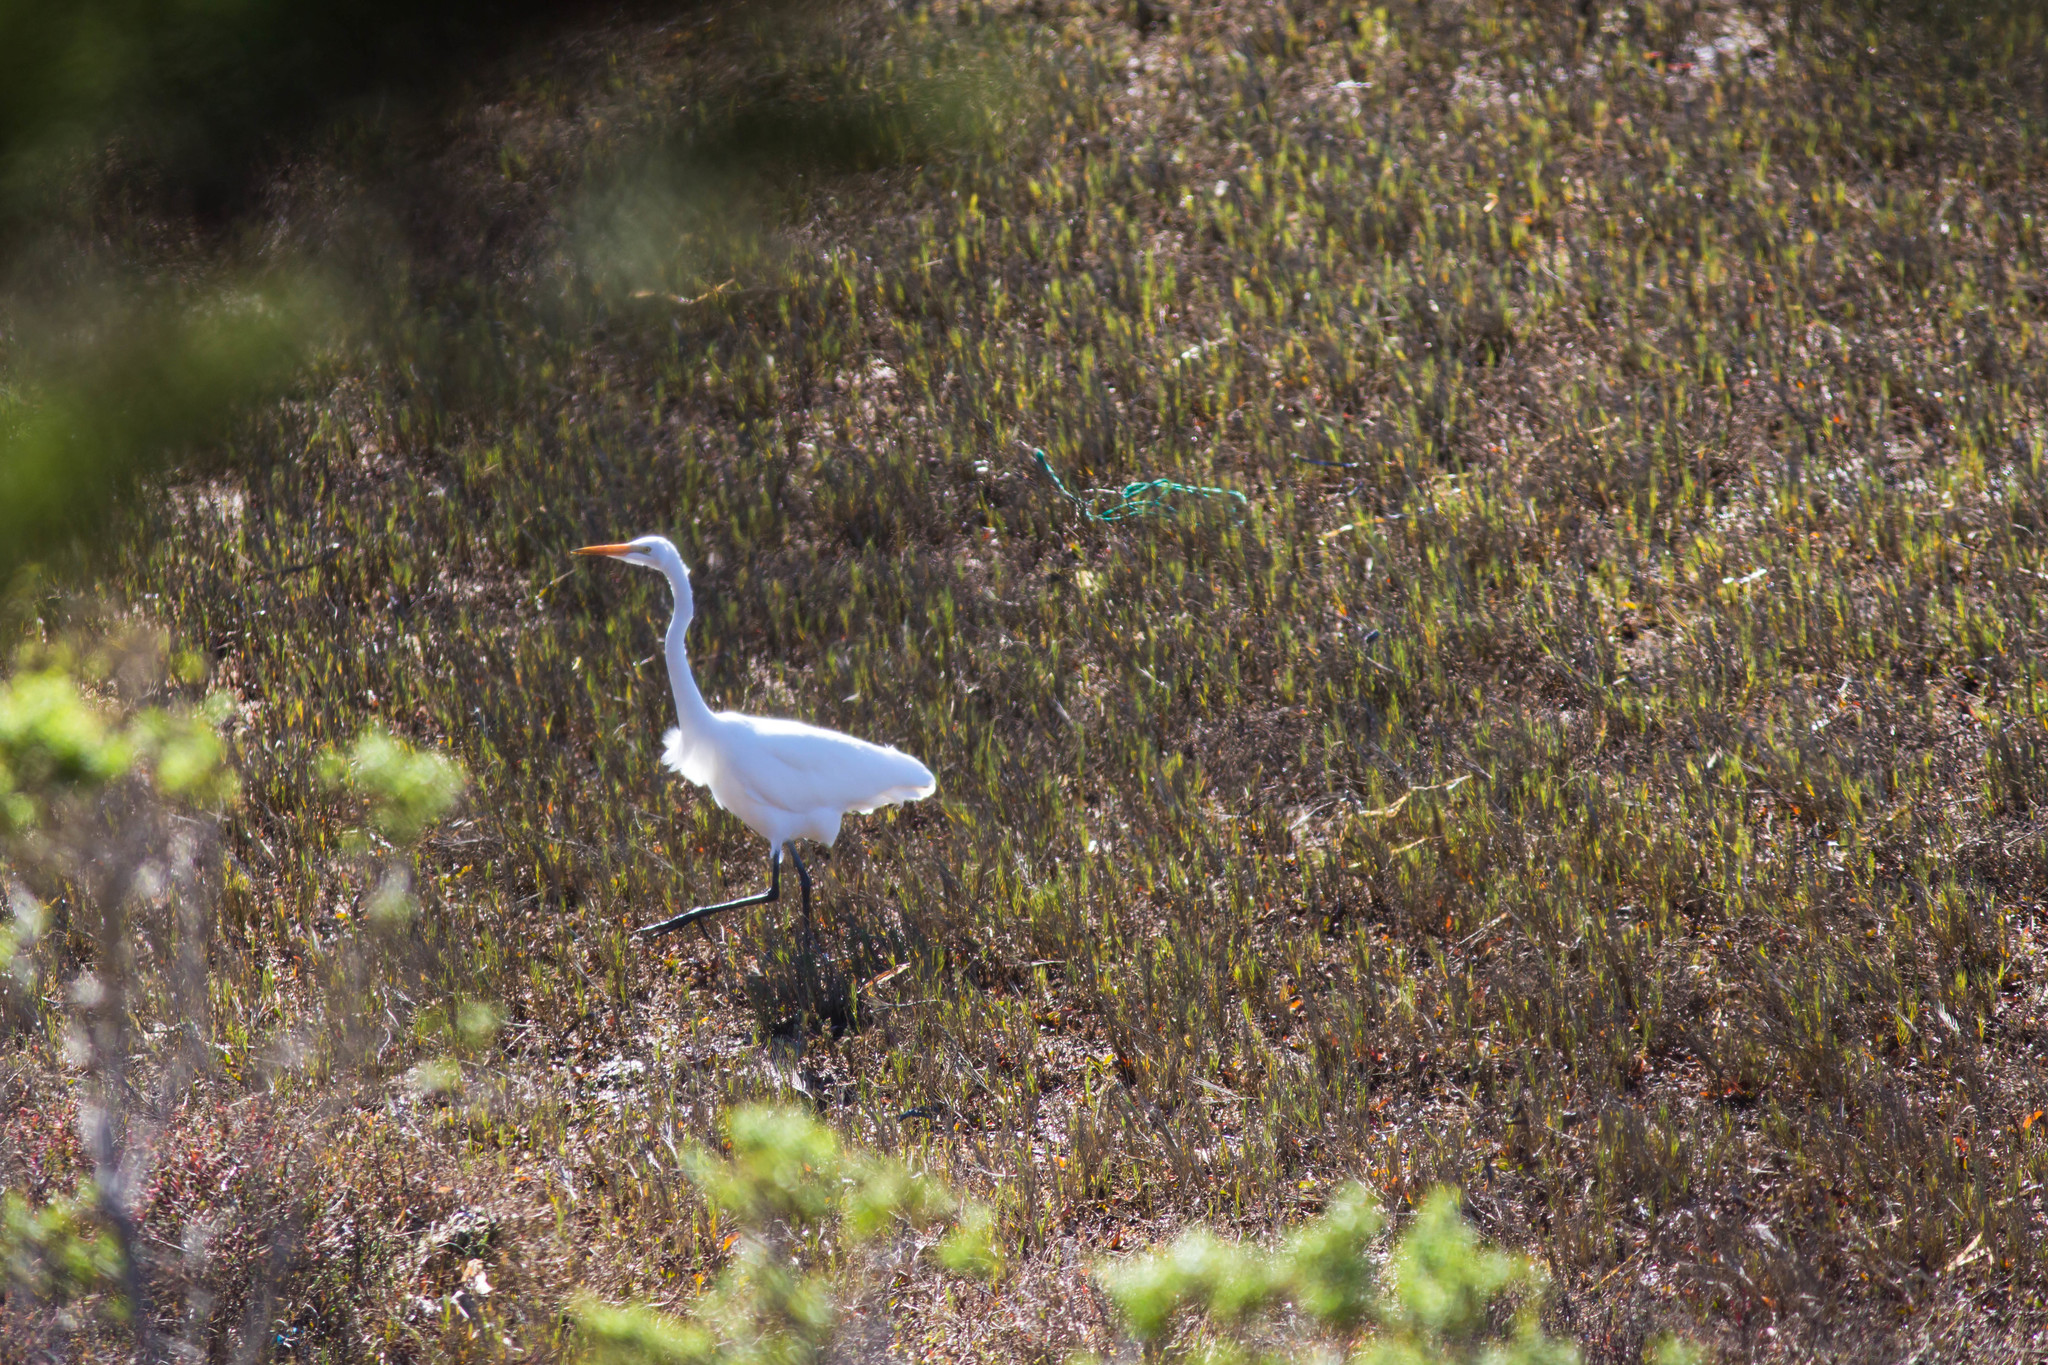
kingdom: Animalia
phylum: Chordata
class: Aves
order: Pelecaniformes
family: Ardeidae
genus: Ardea
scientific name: Ardea alba
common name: Great egret
